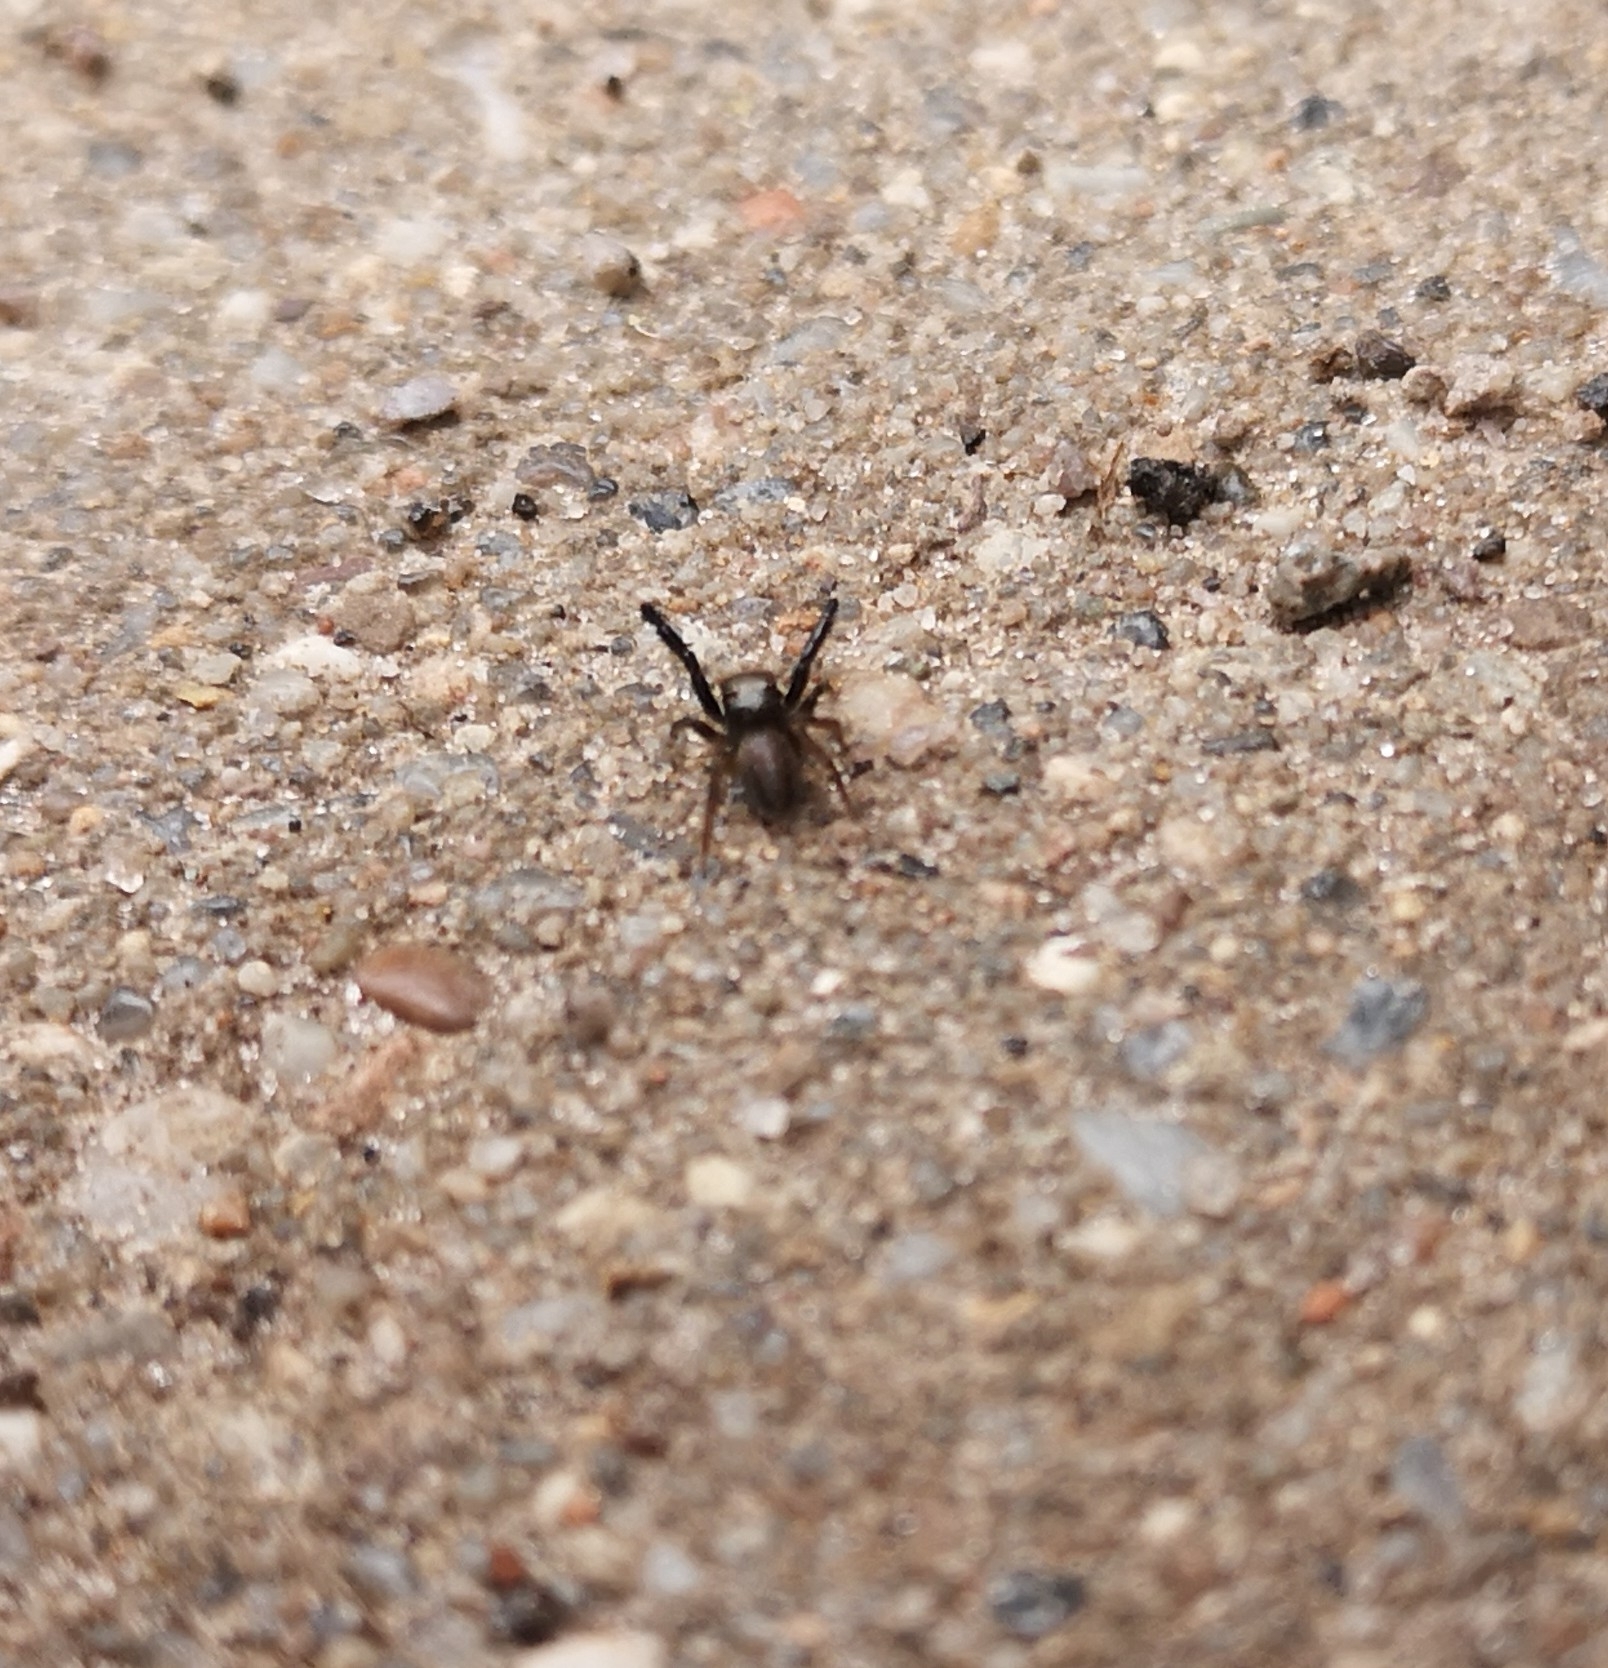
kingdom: Animalia
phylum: Arthropoda
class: Arachnida
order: Araneae
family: Salticidae
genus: Euophrys
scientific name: Euophrys frontalis
